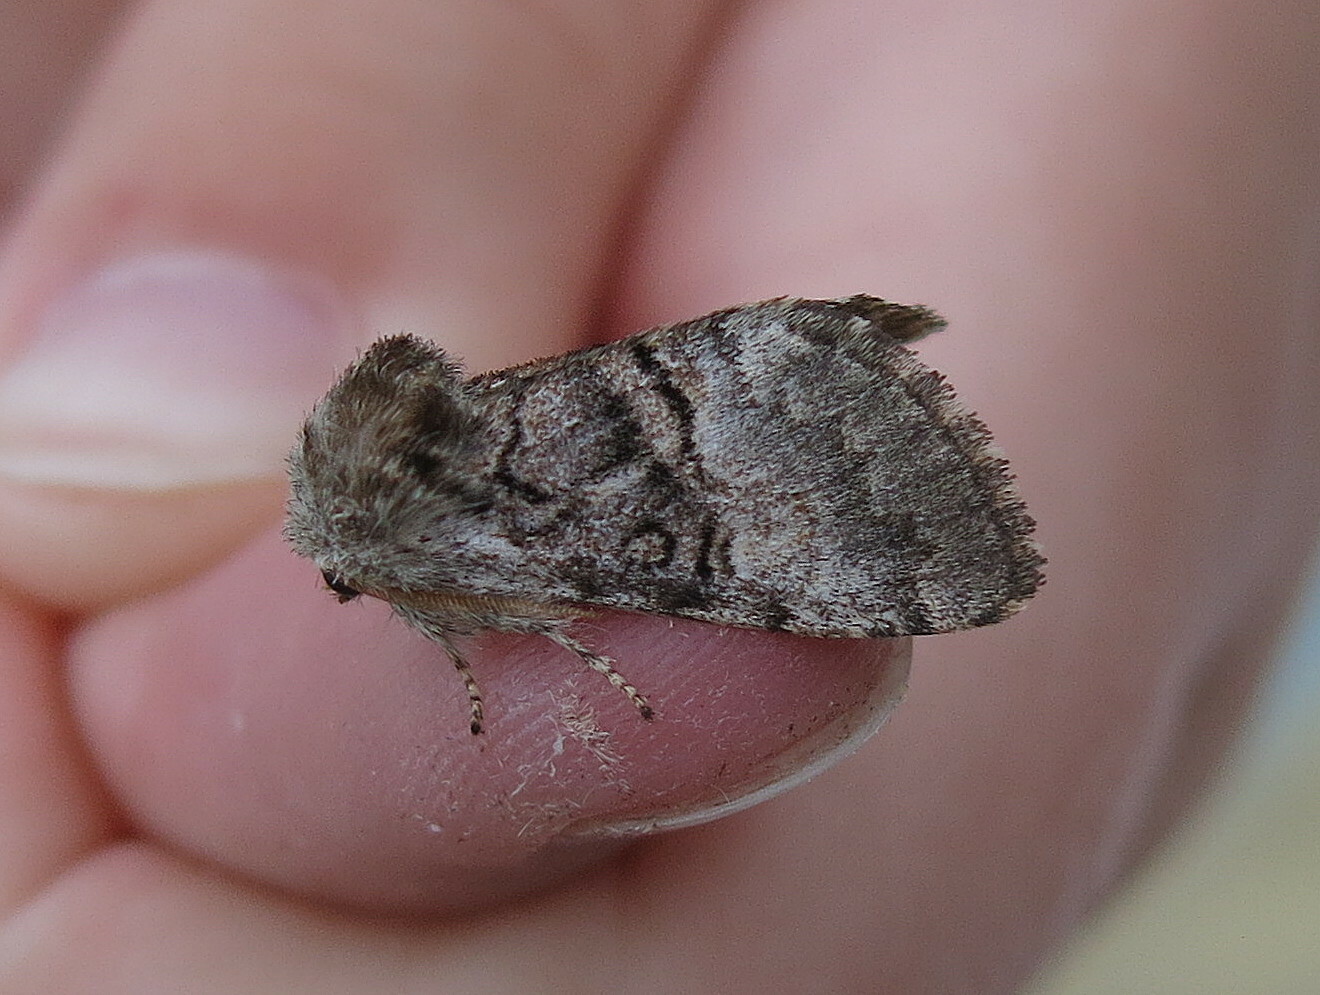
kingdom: Animalia
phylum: Arthropoda
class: Insecta
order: Lepidoptera
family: Noctuidae
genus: Colocasia
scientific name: Colocasia coryli
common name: Nut-tree tussock
